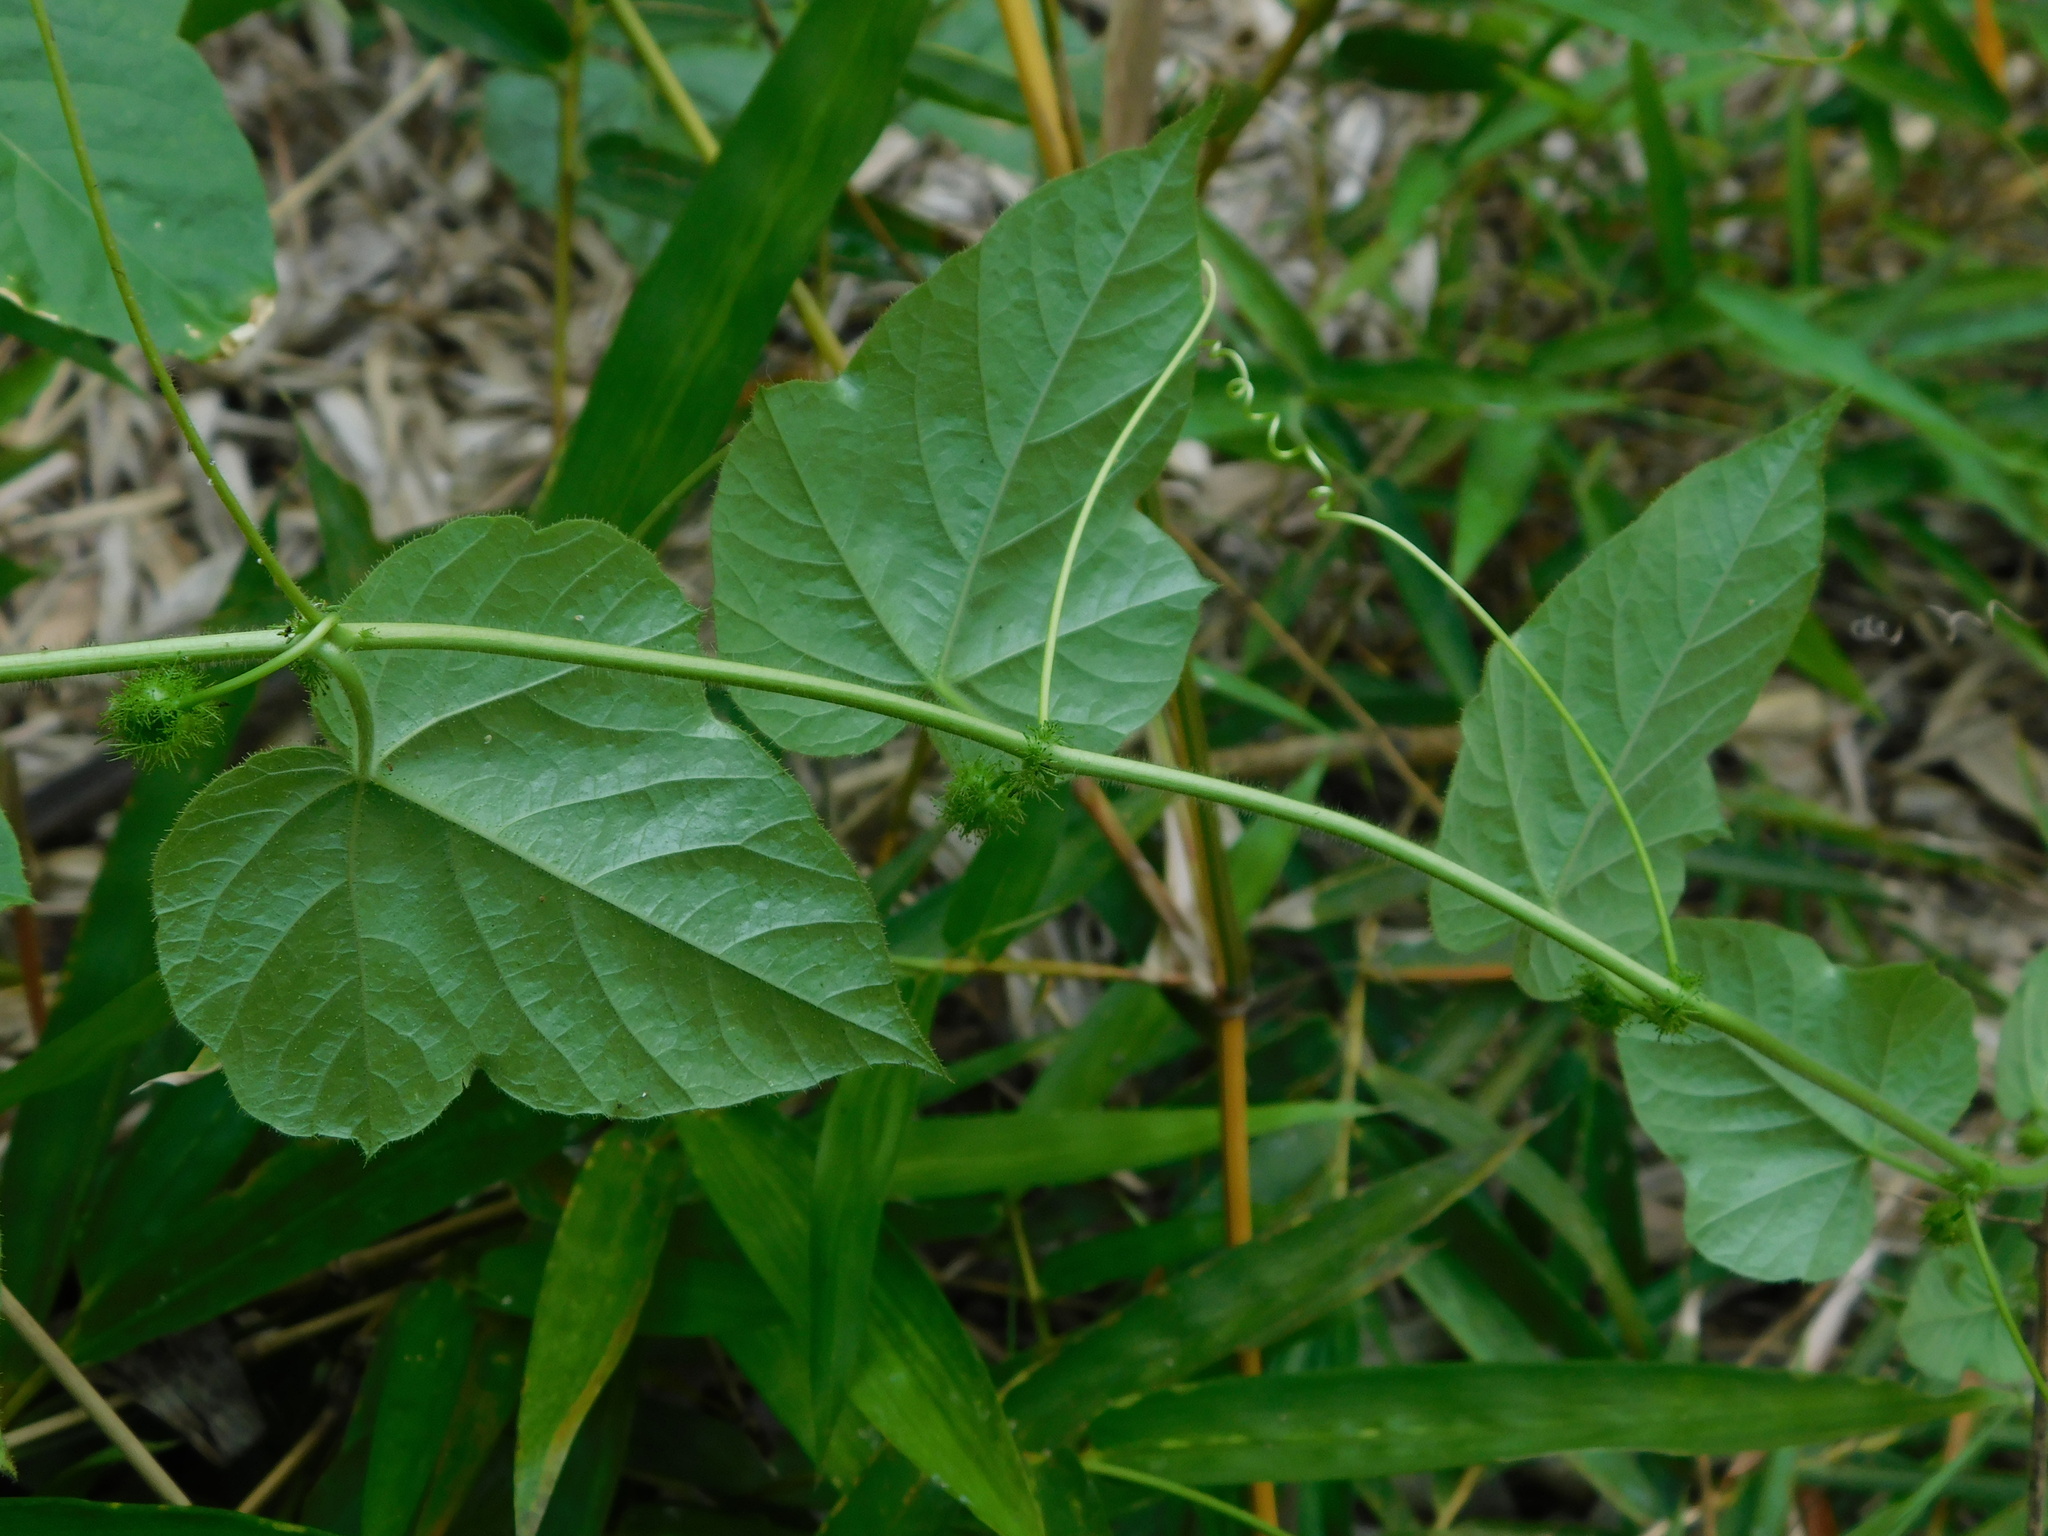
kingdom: Plantae
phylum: Tracheophyta
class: Magnoliopsida
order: Malpighiales
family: Passifloraceae
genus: Passiflora
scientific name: Passiflora vesicaria
